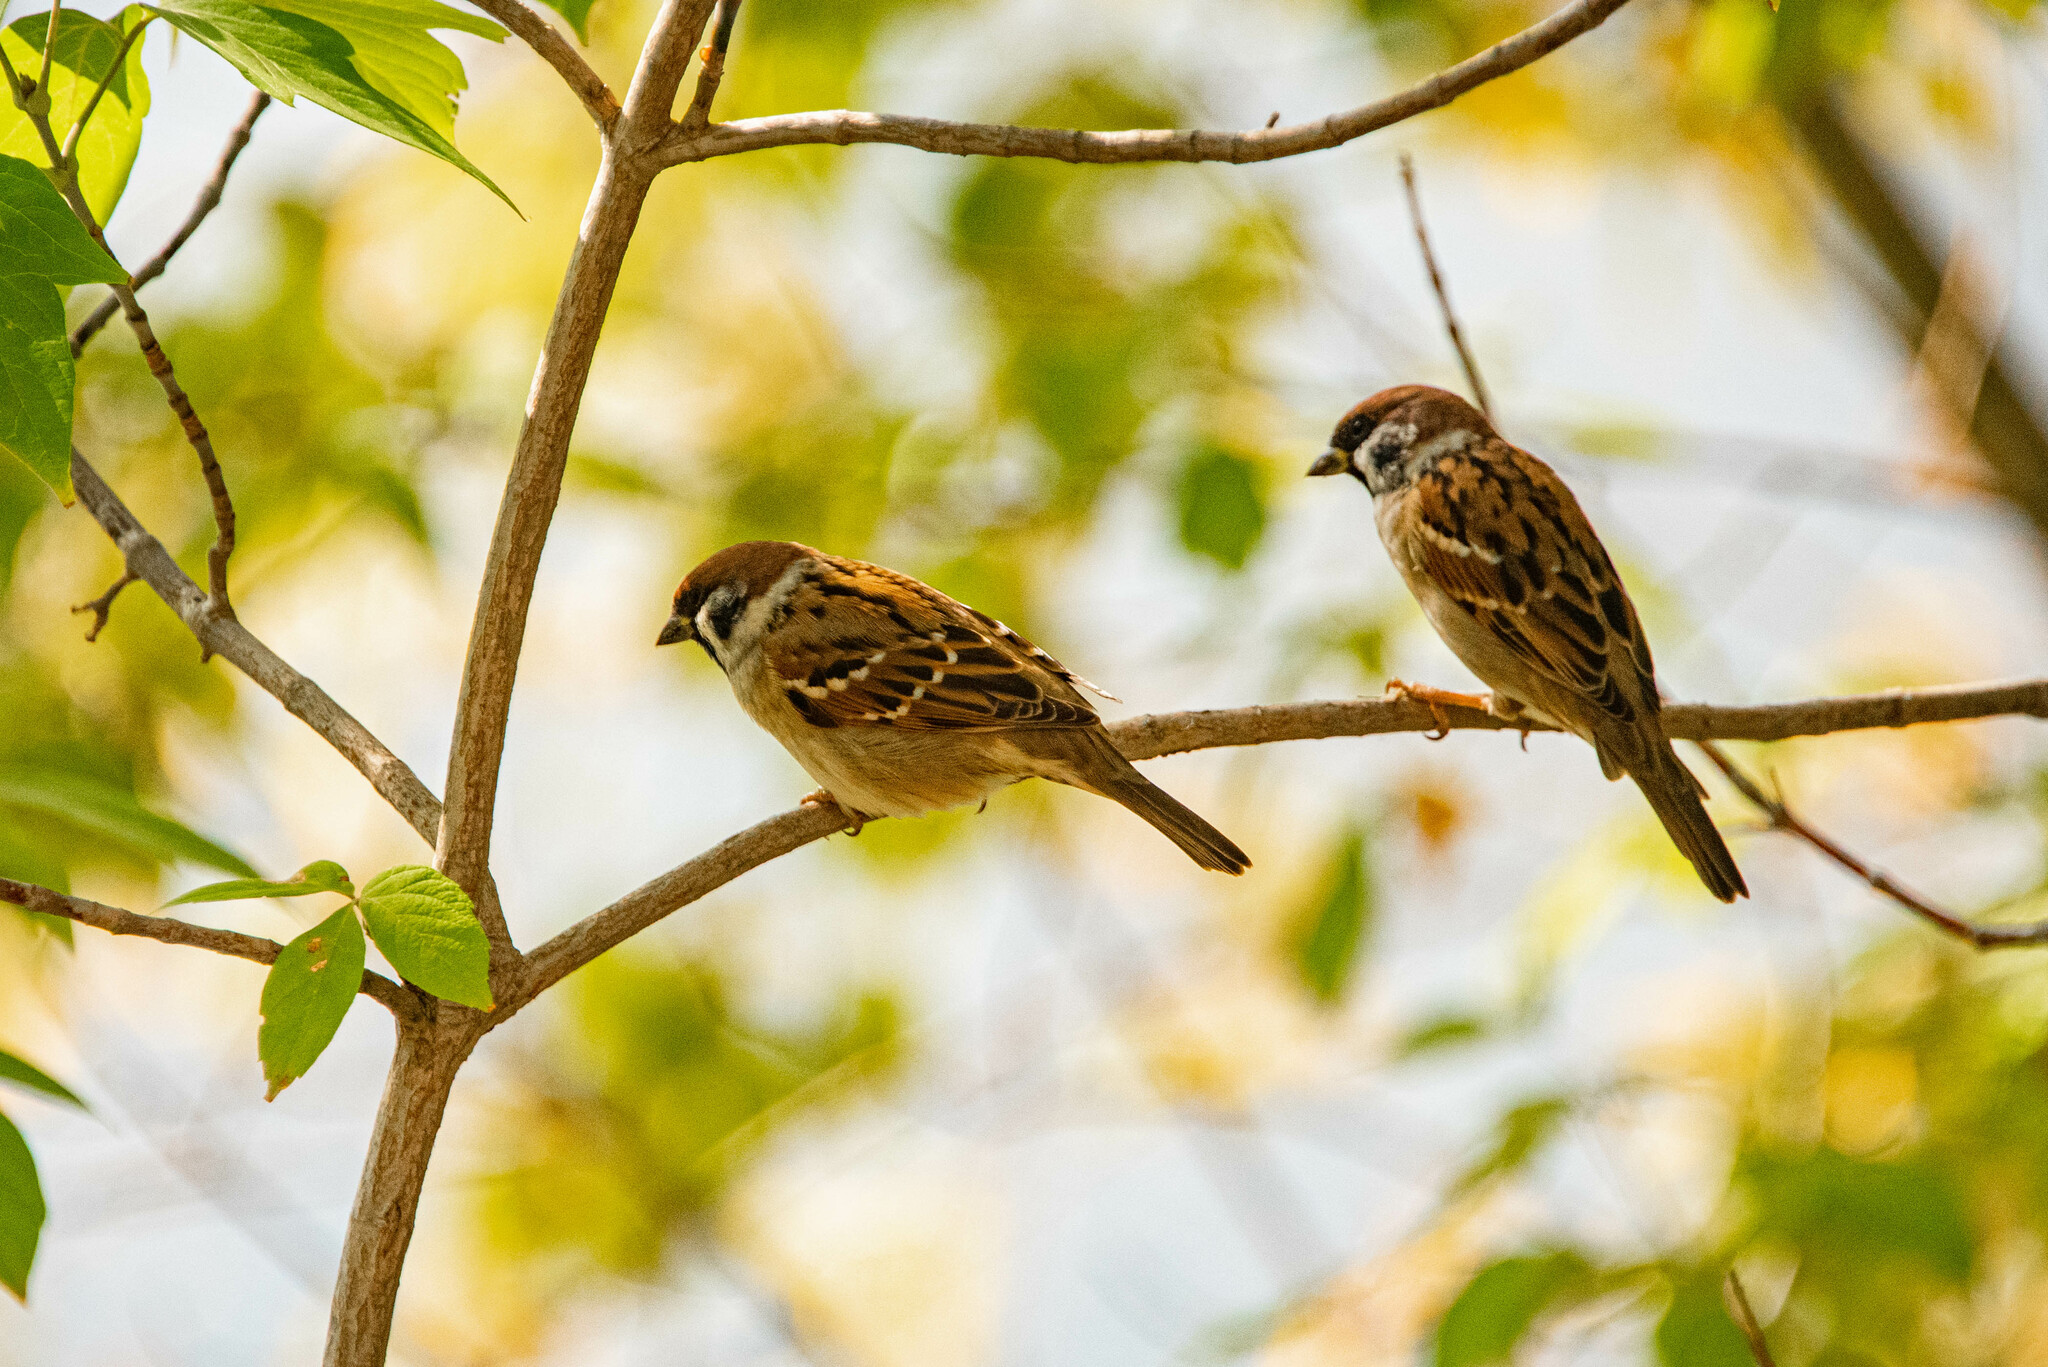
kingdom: Animalia
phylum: Chordata
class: Aves
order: Passeriformes
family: Passeridae
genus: Passer
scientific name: Passer montanus
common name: Eurasian tree sparrow
